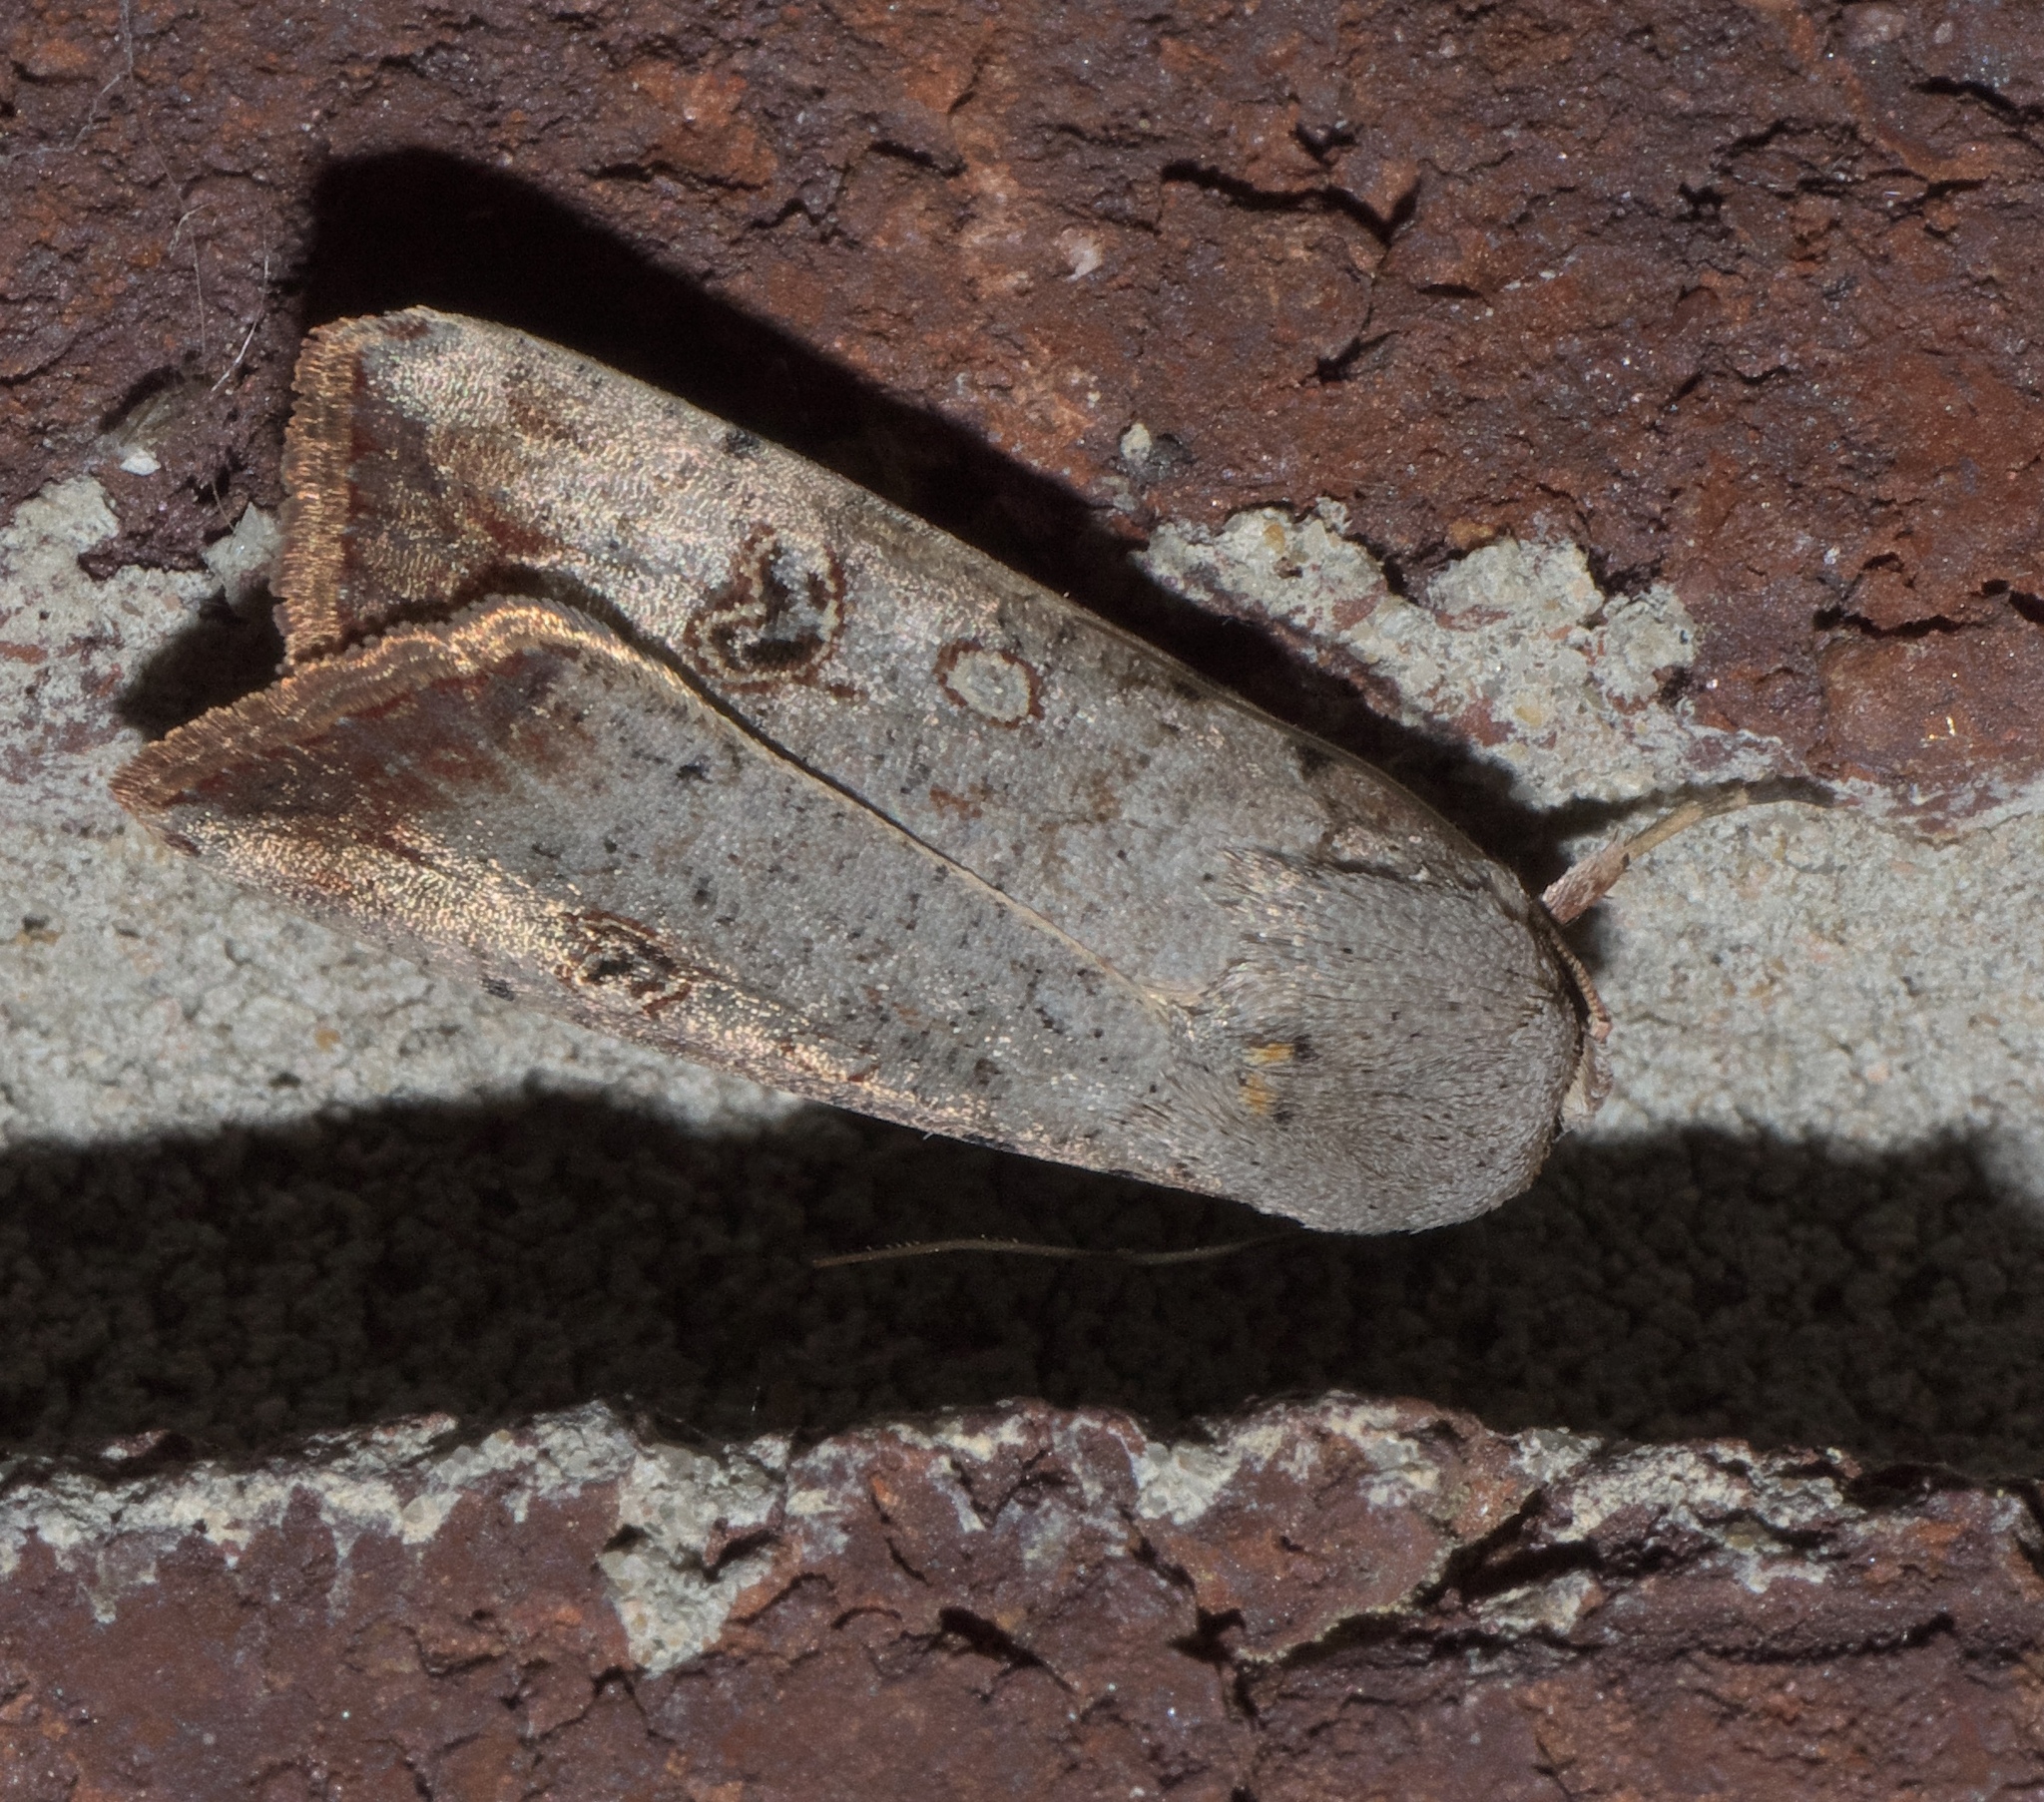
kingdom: Animalia
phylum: Arthropoda
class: Insecta
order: Lepidoptera
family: Noctuidae
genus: Anicla
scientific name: Anicla infecta
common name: Green cutworm
